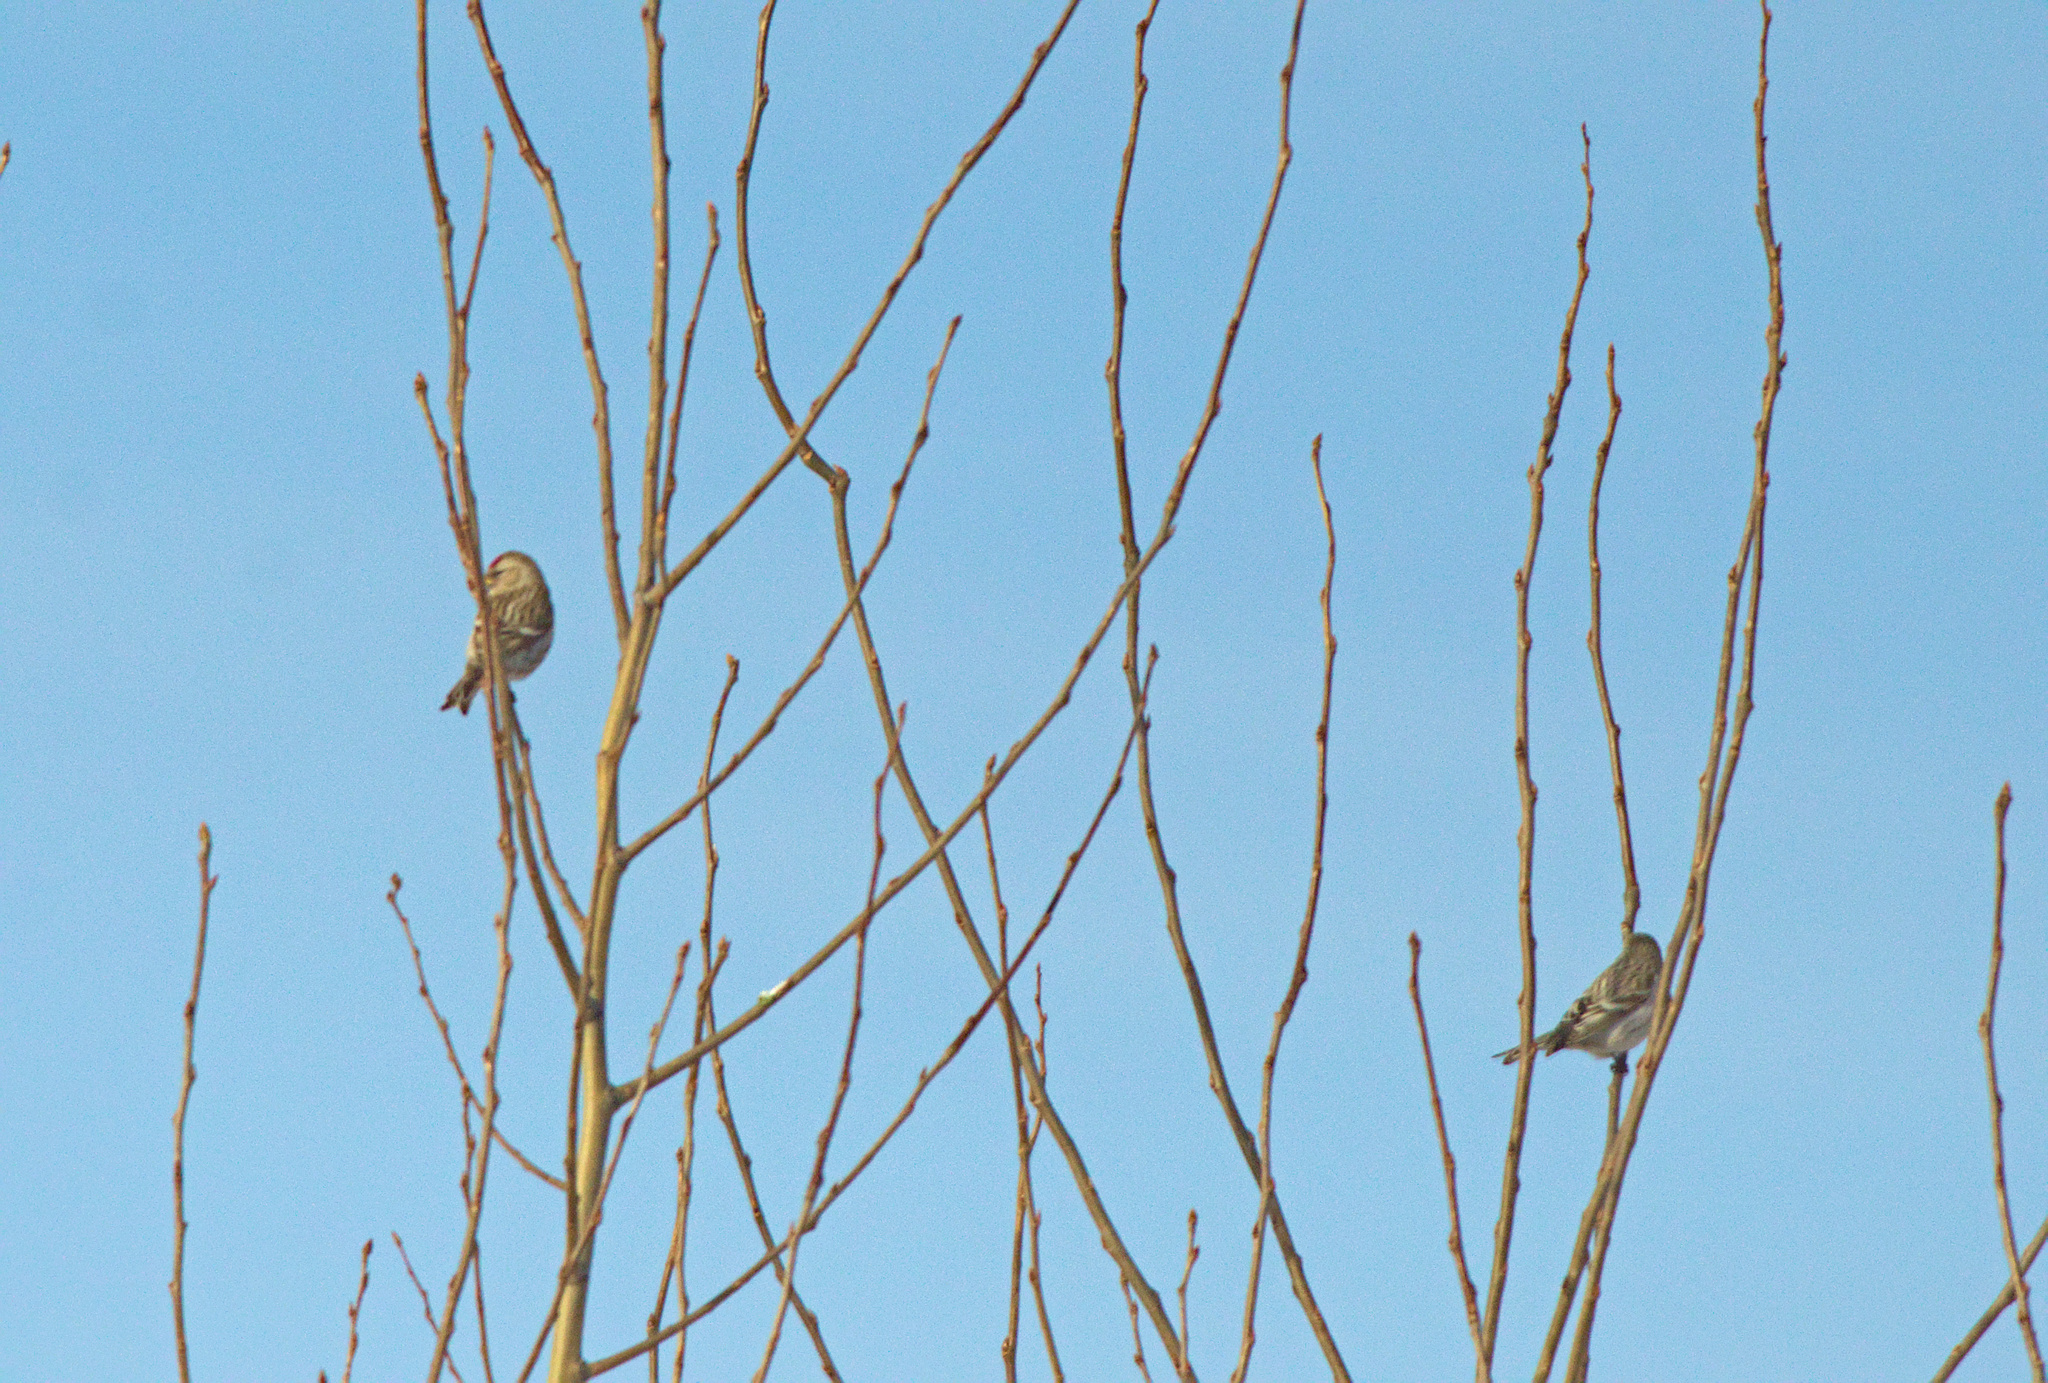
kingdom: Animalia
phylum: Chordata
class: Aves
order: Passeriformes
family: Fringillidae
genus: Acanthis
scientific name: Acanthis flammea
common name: Common redpoll
